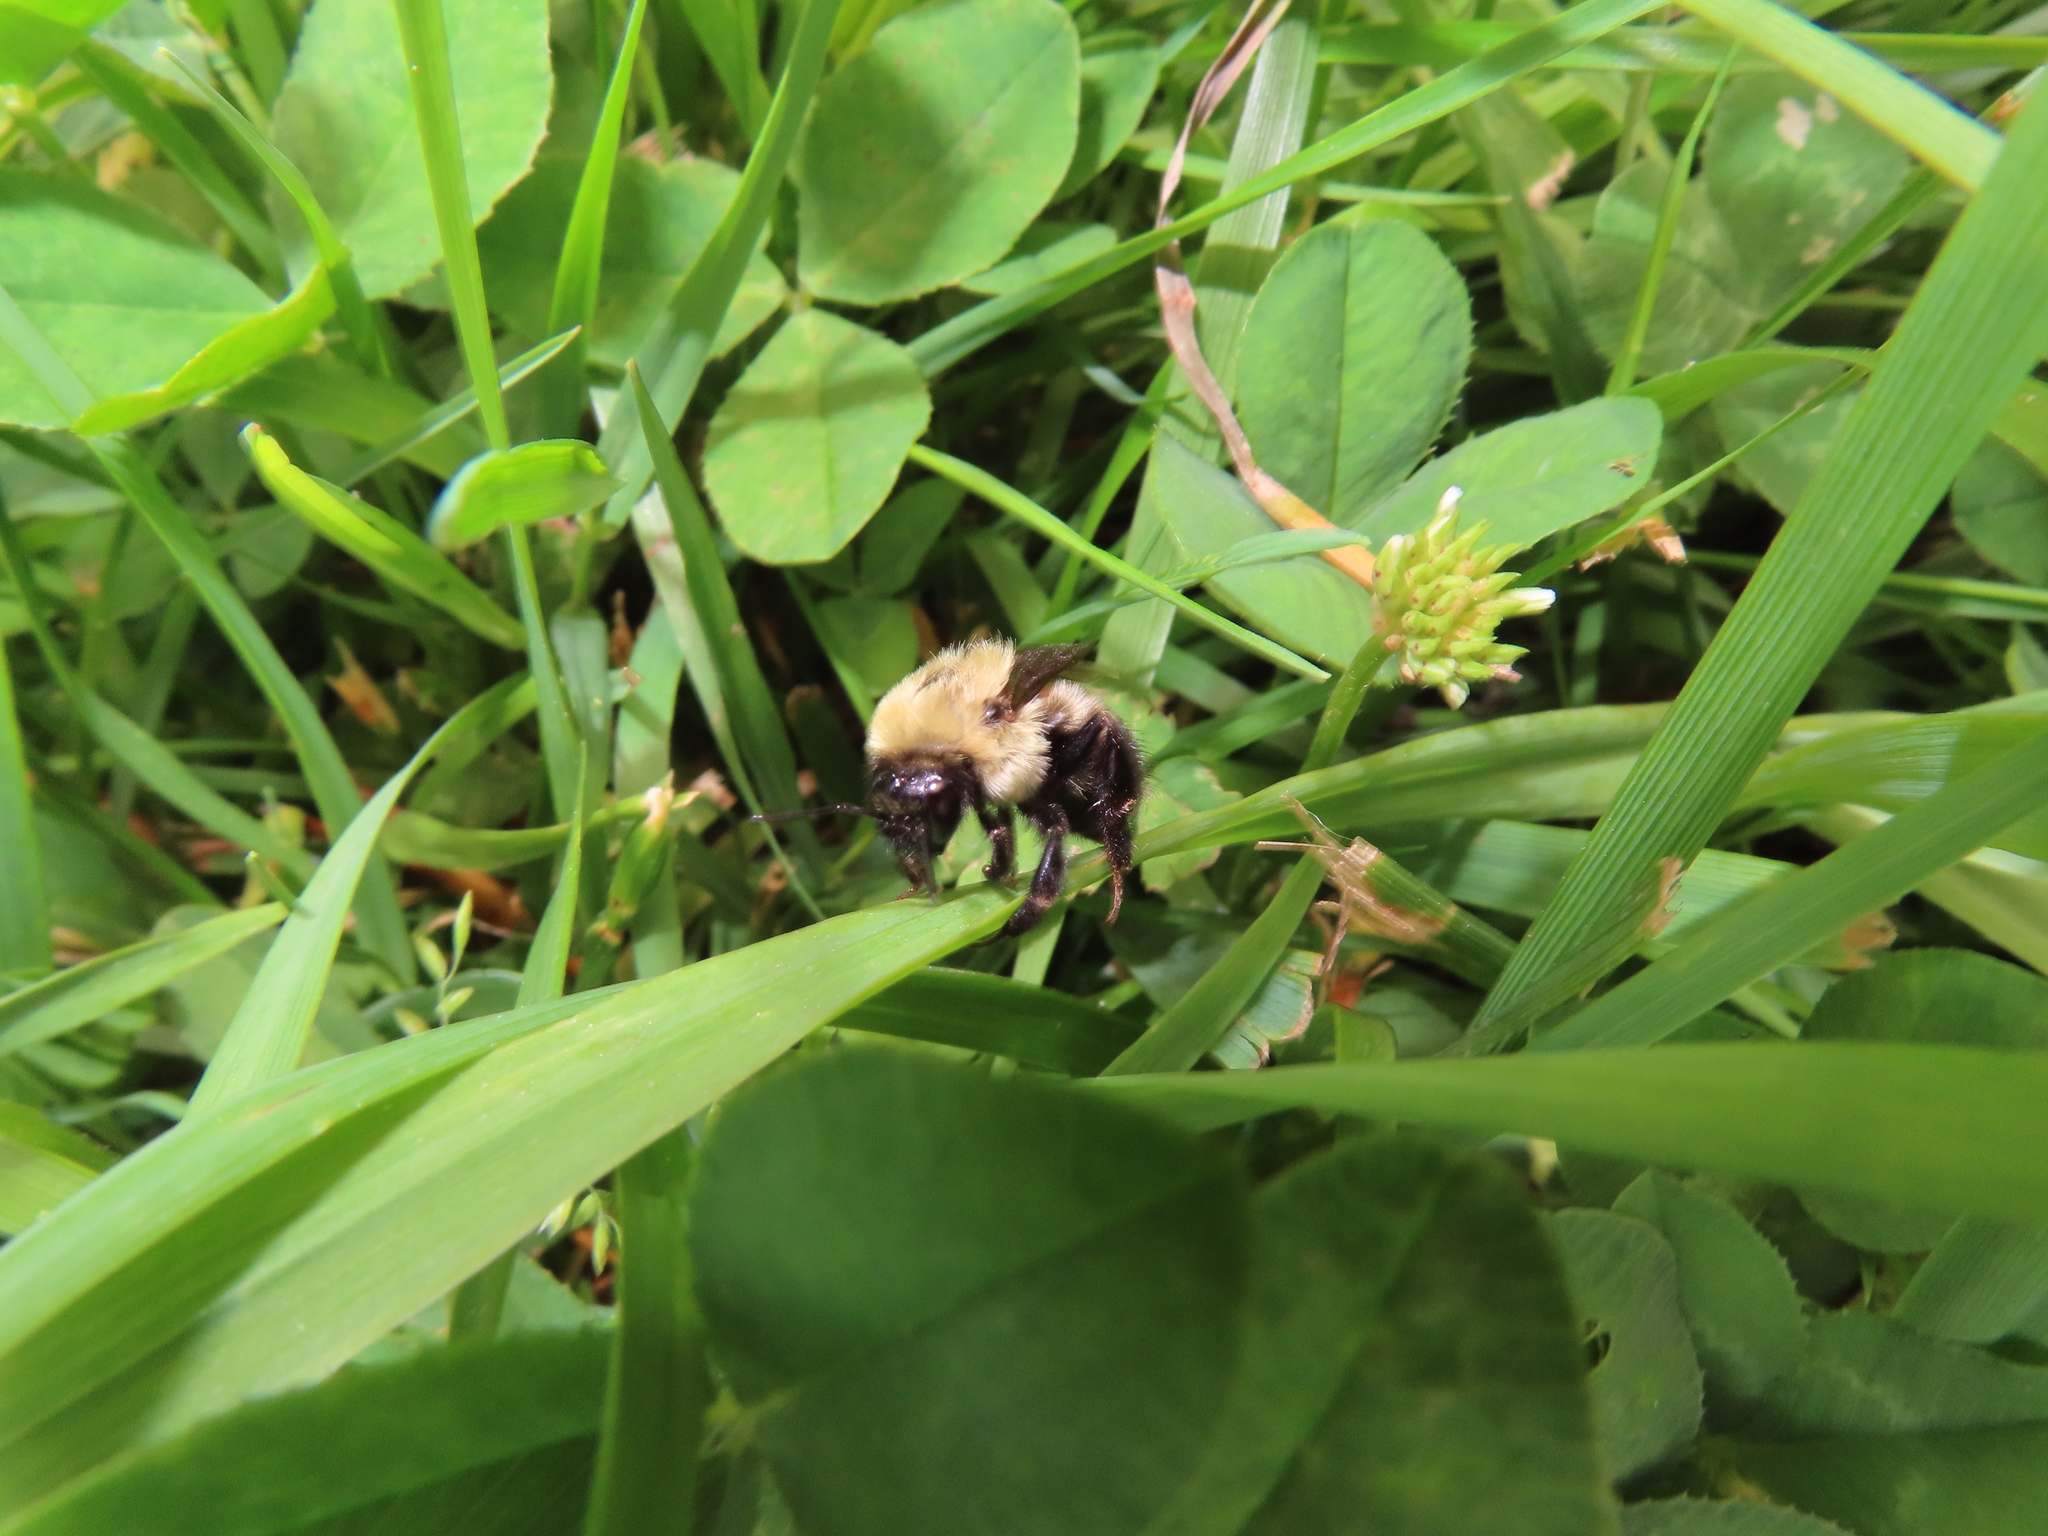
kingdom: Animalia
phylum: Arthropoda
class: Insecta
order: Hymenoptera
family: Apidae
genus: Bombus
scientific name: Bombus griseocollis
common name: Brown-belted bumble bee
